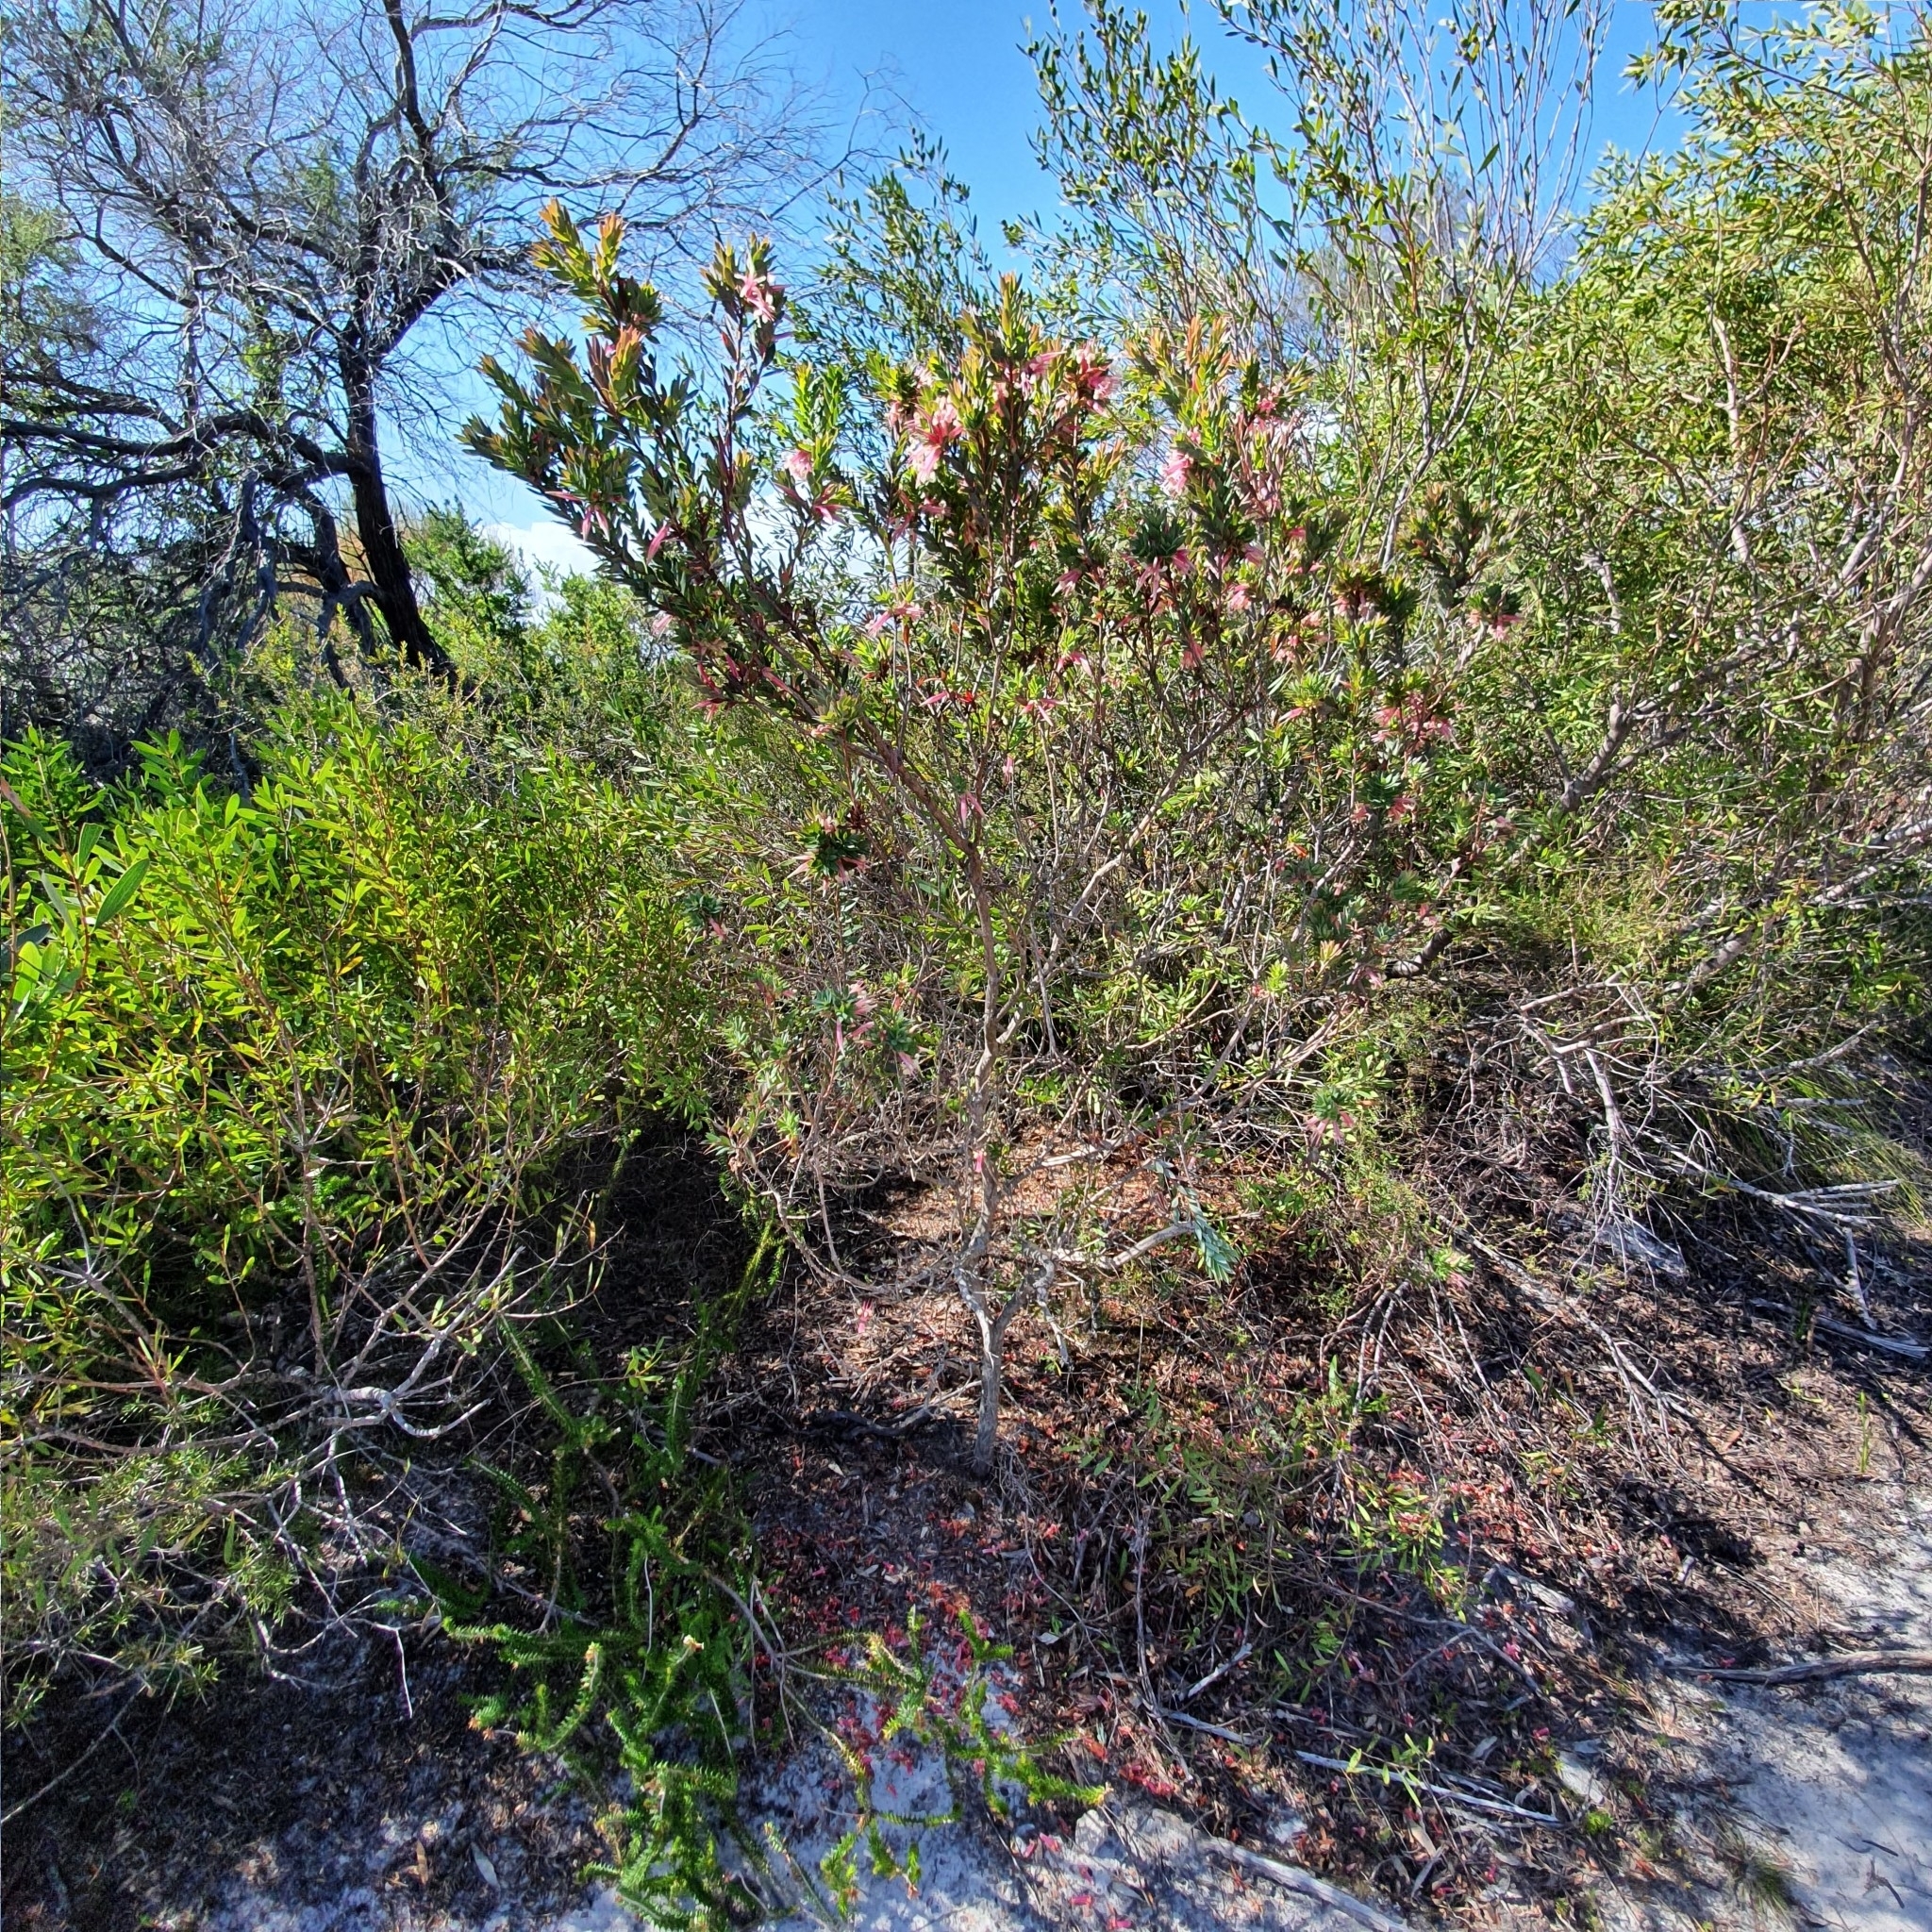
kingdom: Plantae
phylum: Tracheophyta
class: Magnoliopsida
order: Ericales
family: Ericaceae
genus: Styphelia
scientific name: Styphelia triflora
